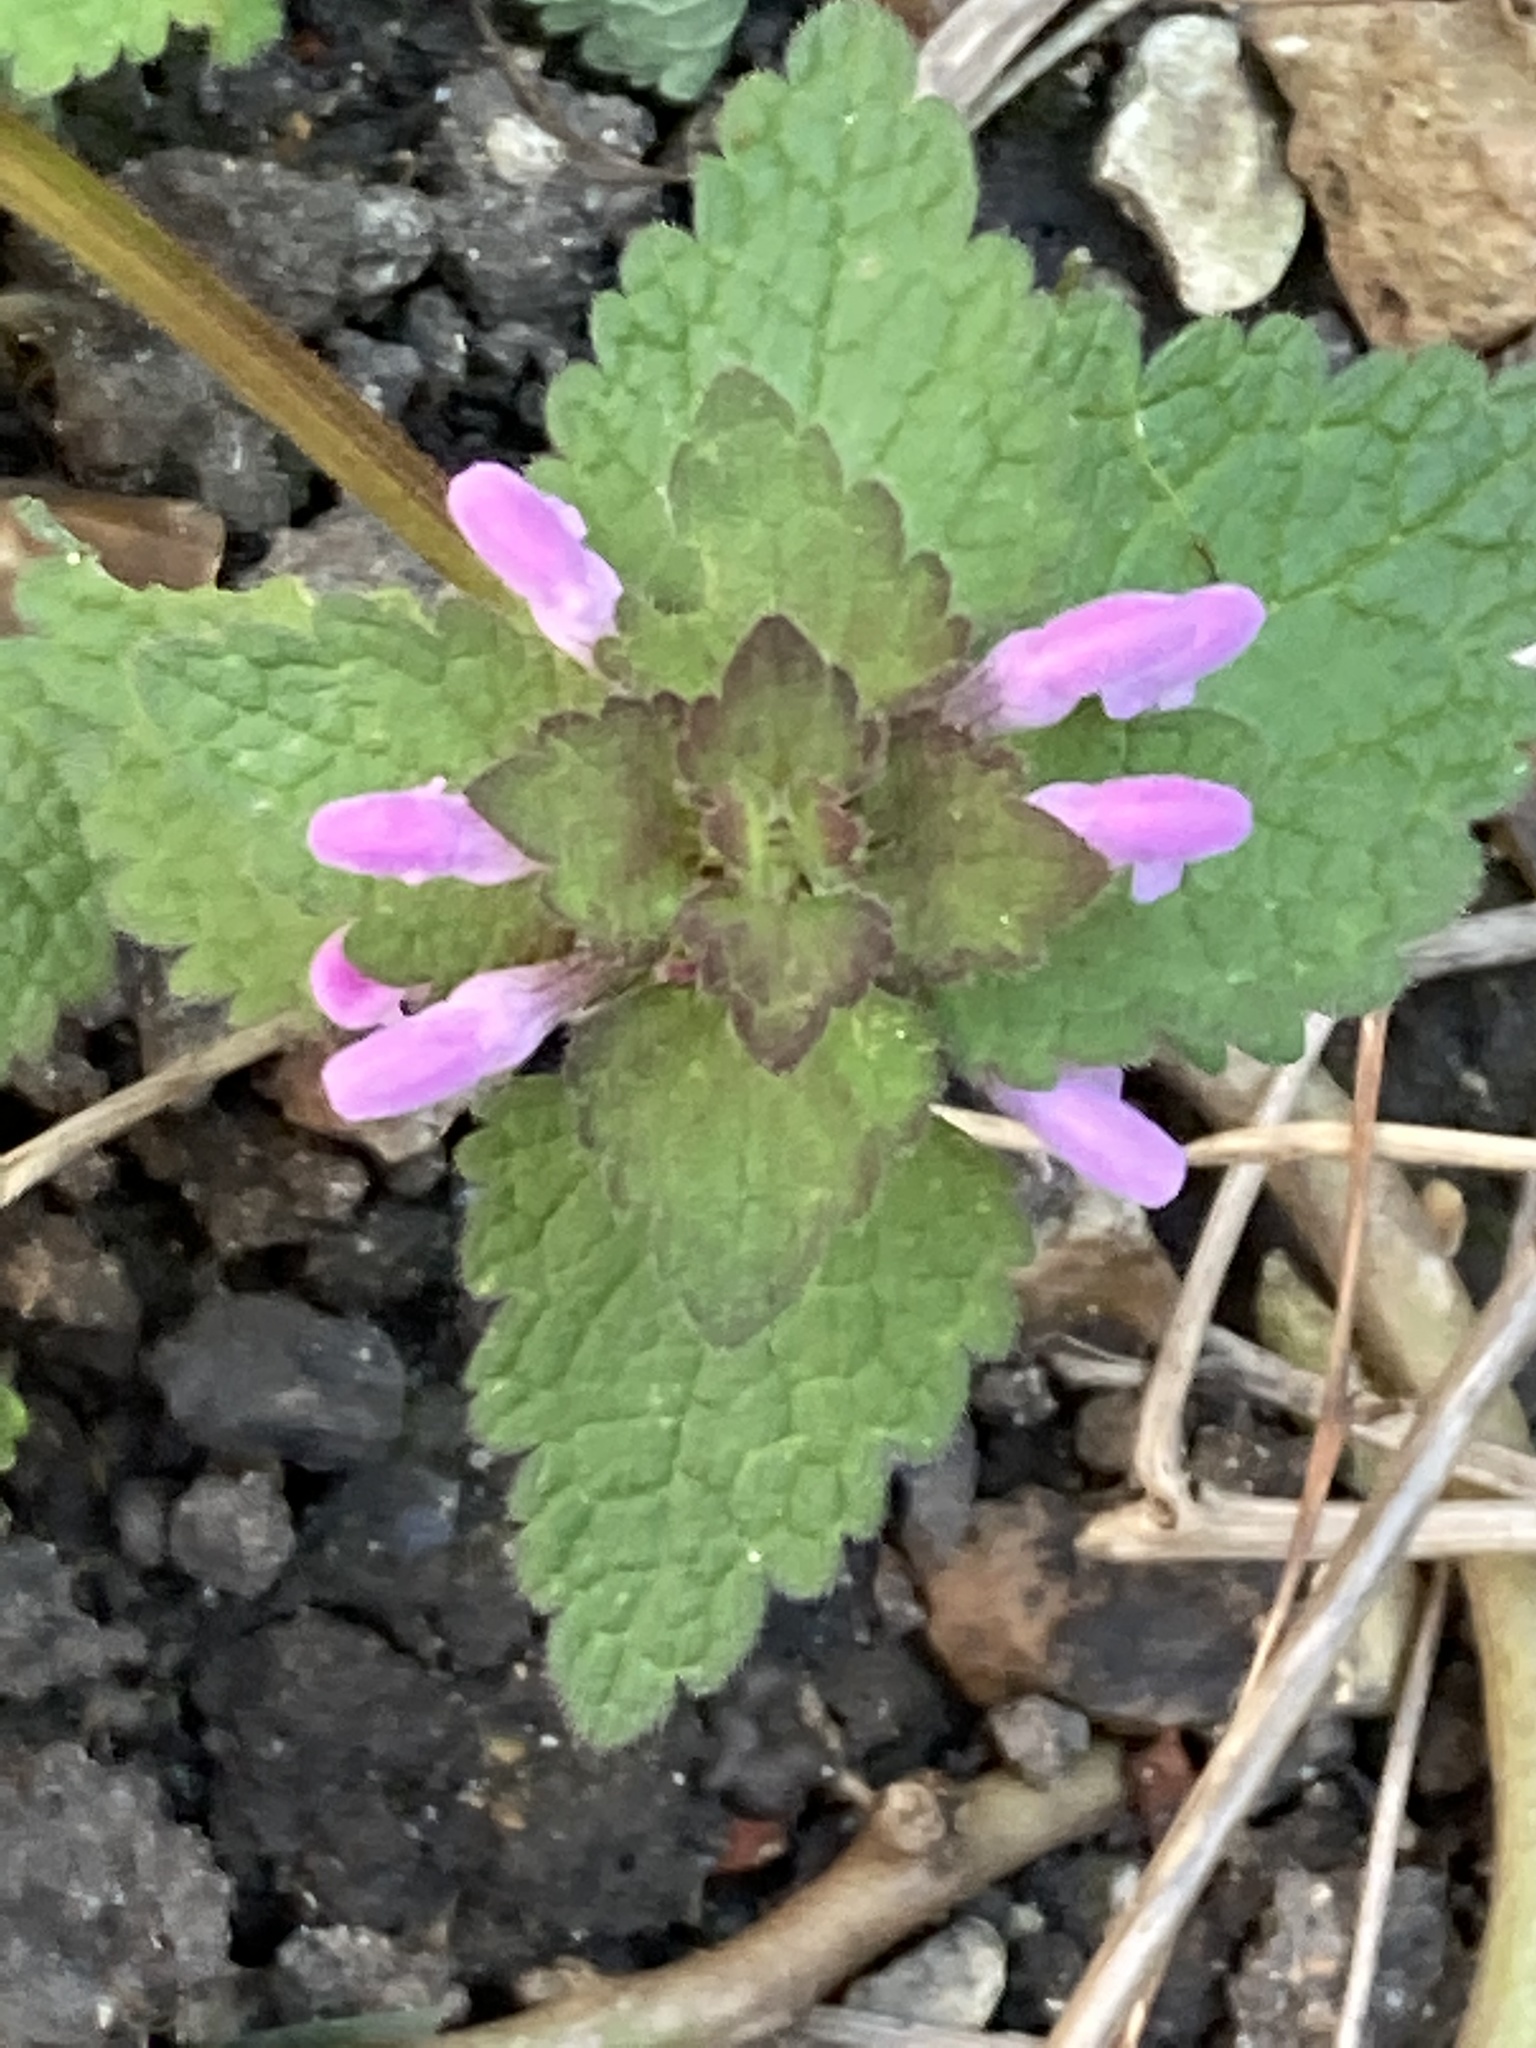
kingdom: Plantae
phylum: Tracheophyta
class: Magnoliopsida
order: Lamiales
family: Lamiaceae
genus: Lamium
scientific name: Lamium purpureum
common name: Red dead-nettle
